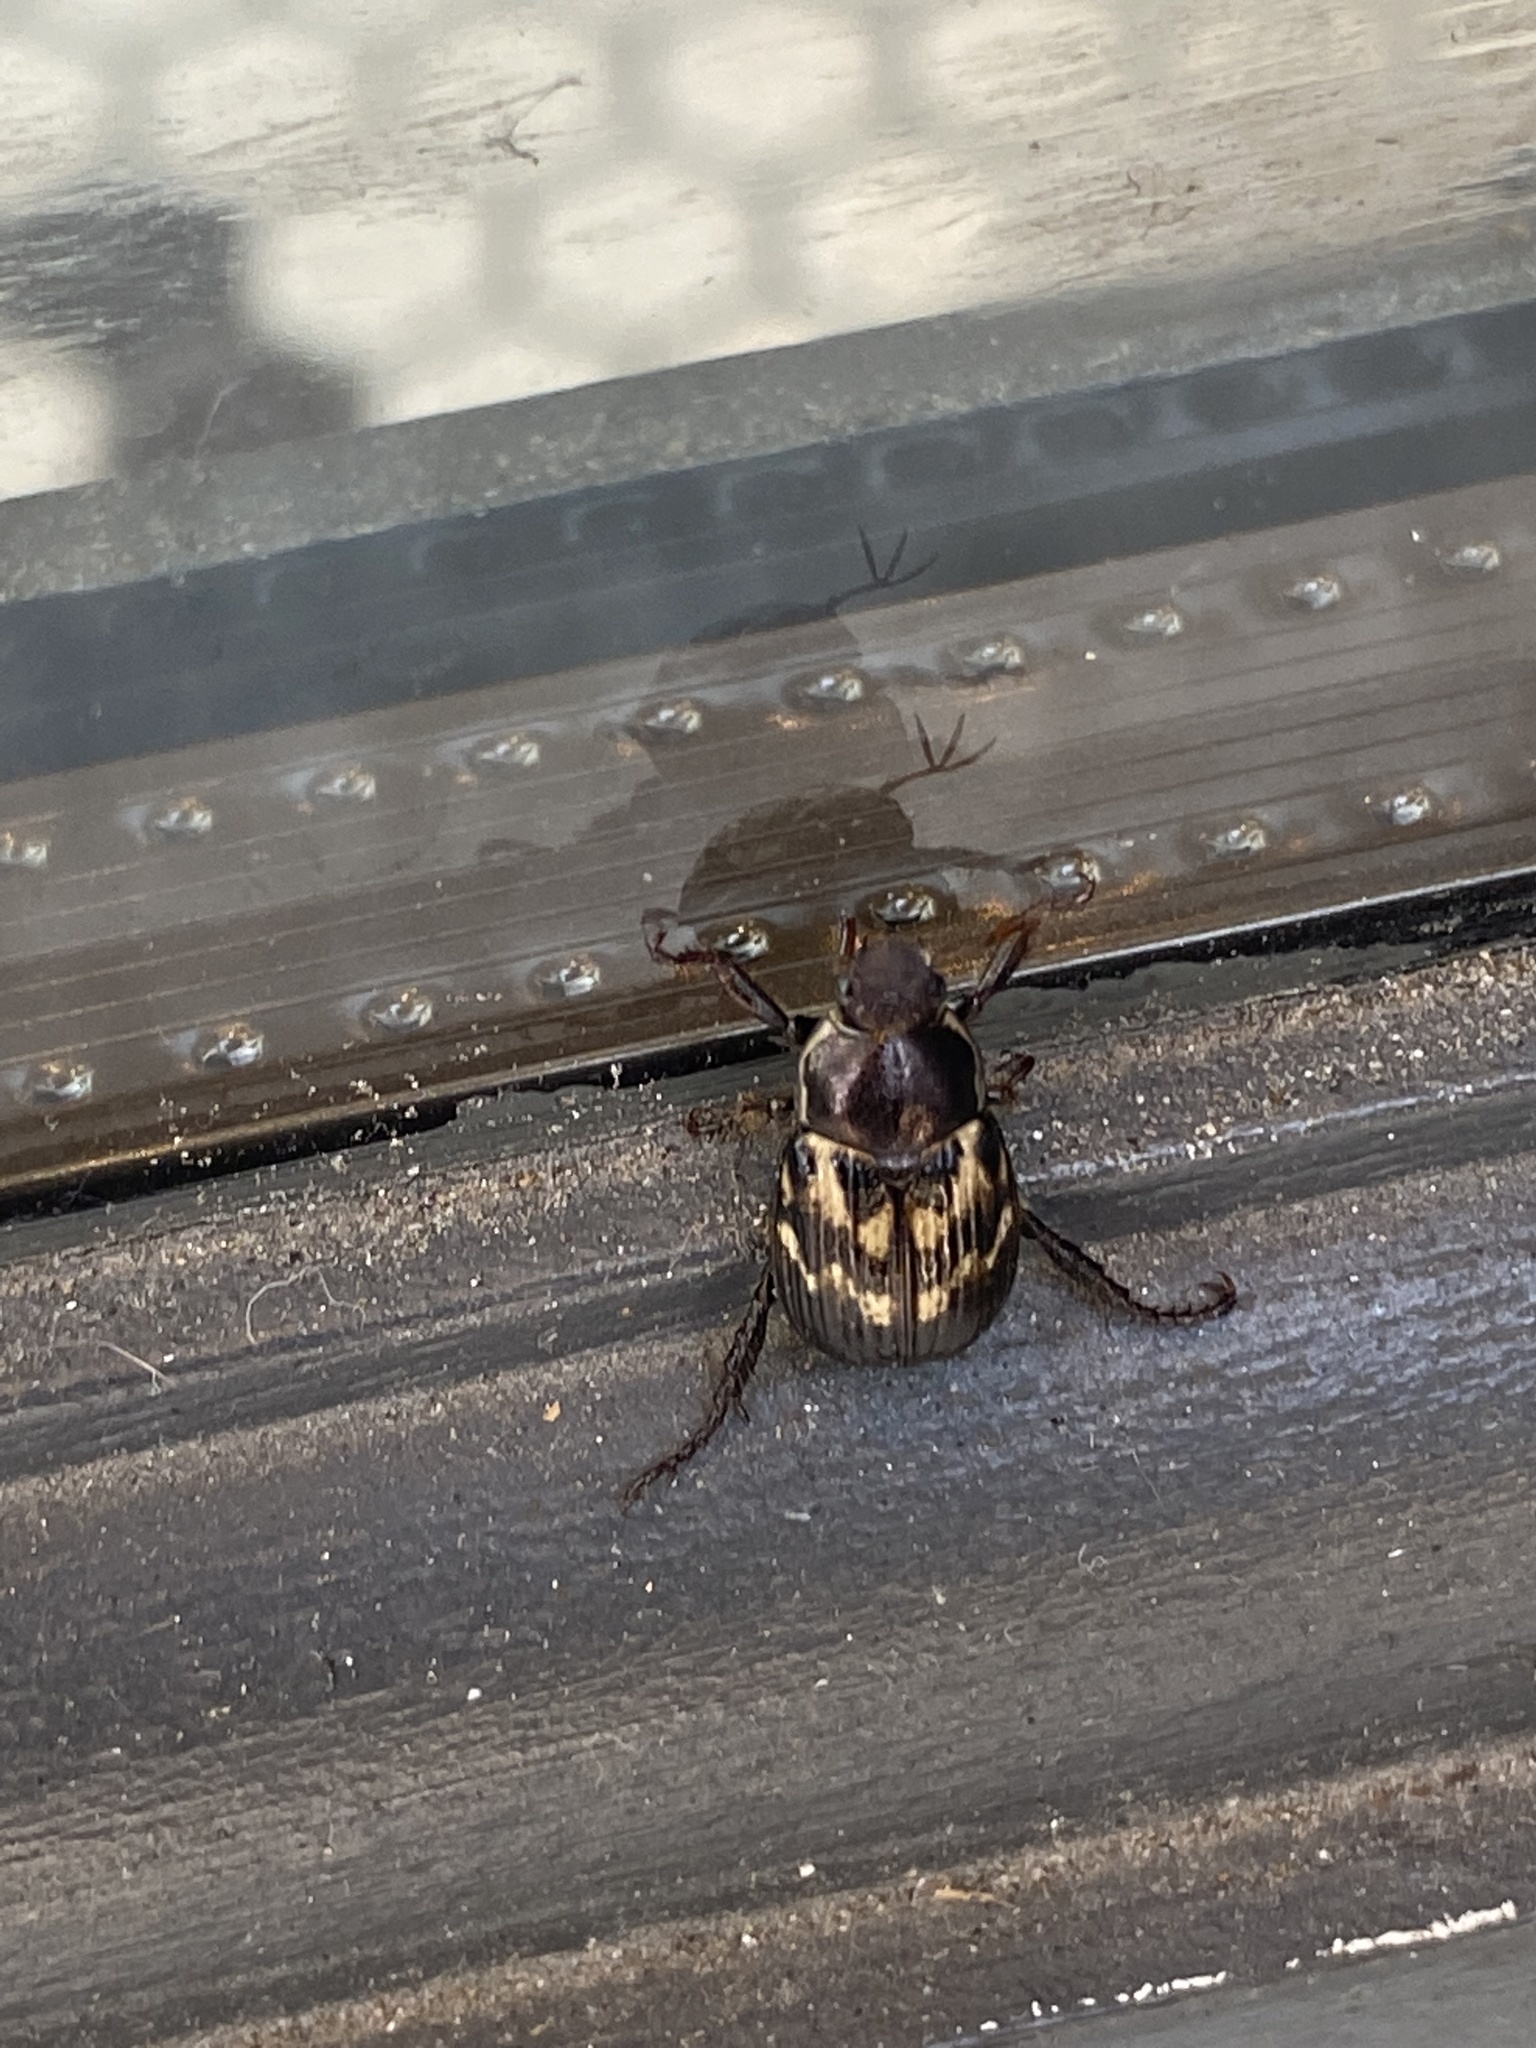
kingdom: Animalia
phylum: Arthropoda
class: Insecta
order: Coleoptera
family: Scarabaeidae
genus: Exomala
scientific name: Exomala orientalis
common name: Oriental beetle
